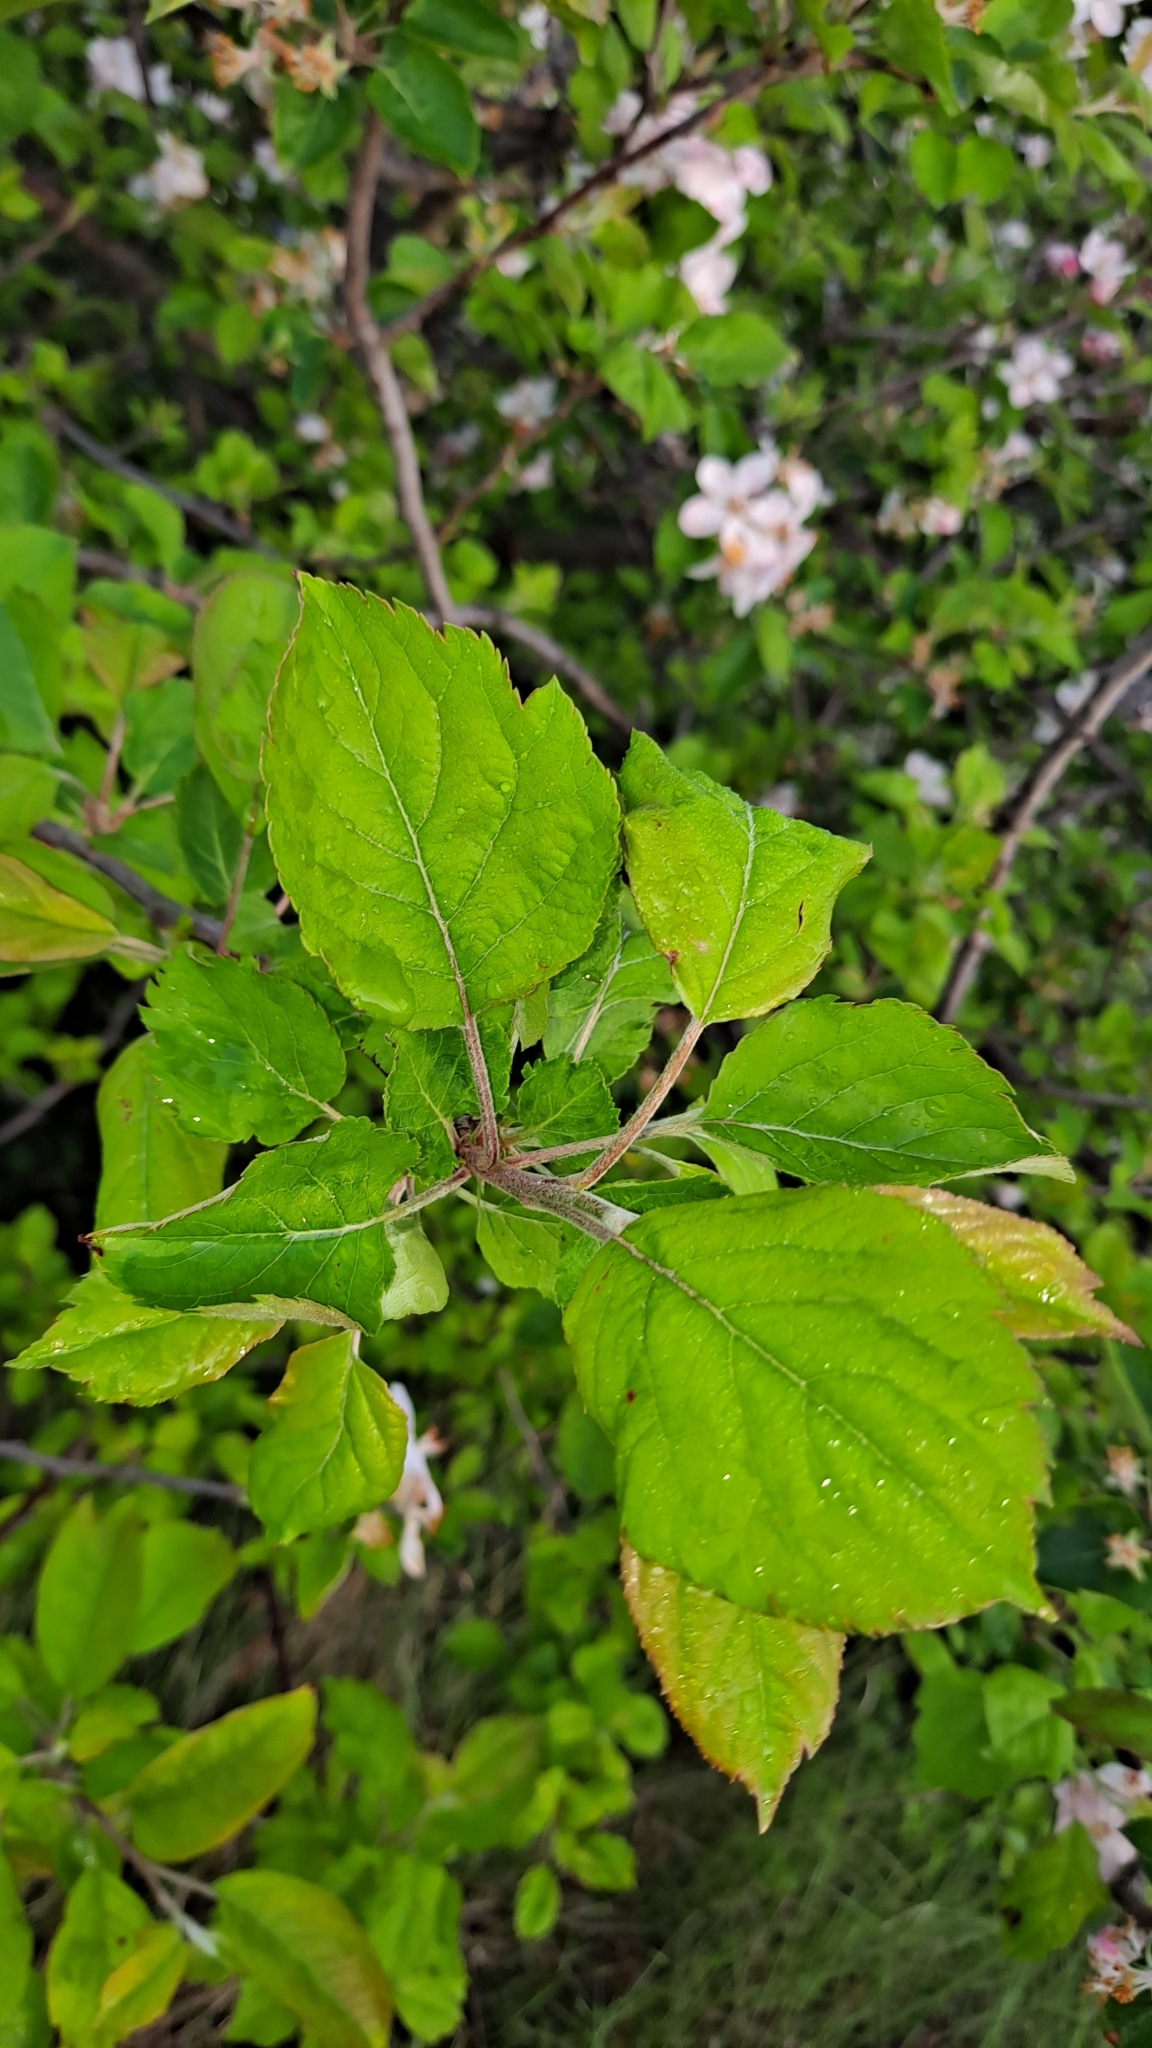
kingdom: Plantae
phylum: Tracheophyta
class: Magnoliopsida
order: Rosales
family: Rosaceae
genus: Malus
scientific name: Malus domestica
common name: Apple
